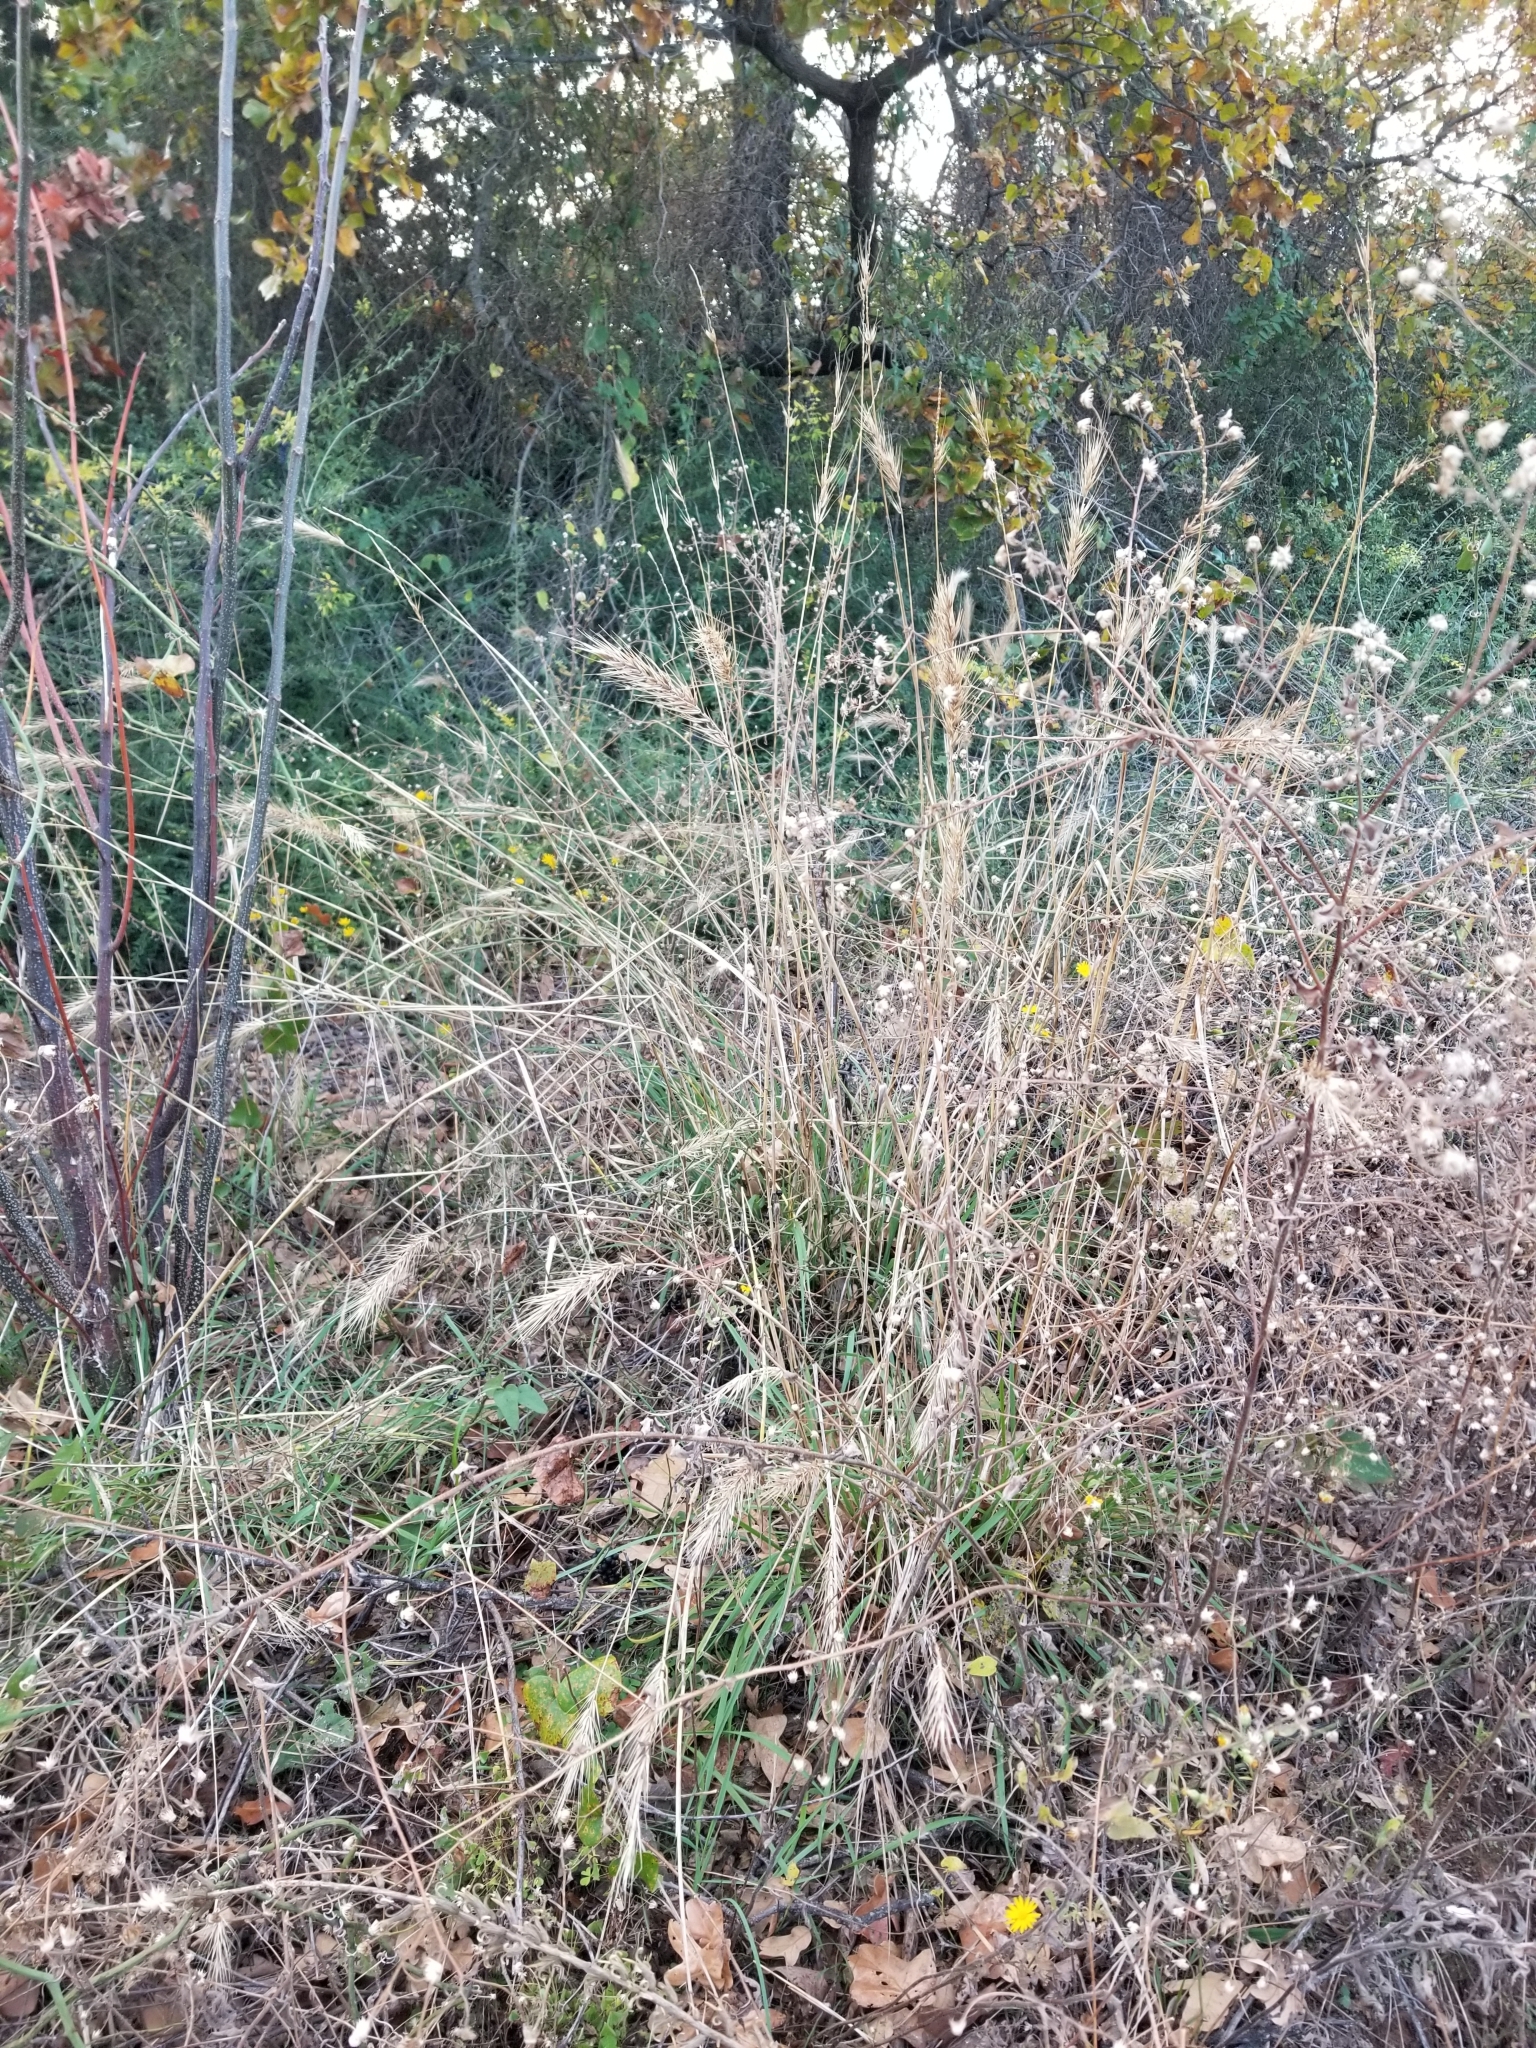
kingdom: Plantae
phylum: Tracheophyta
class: Liliopsida
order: Poales
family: Poaceae
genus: Elymus
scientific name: Elymus virginicus
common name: Common eastern wildrye
